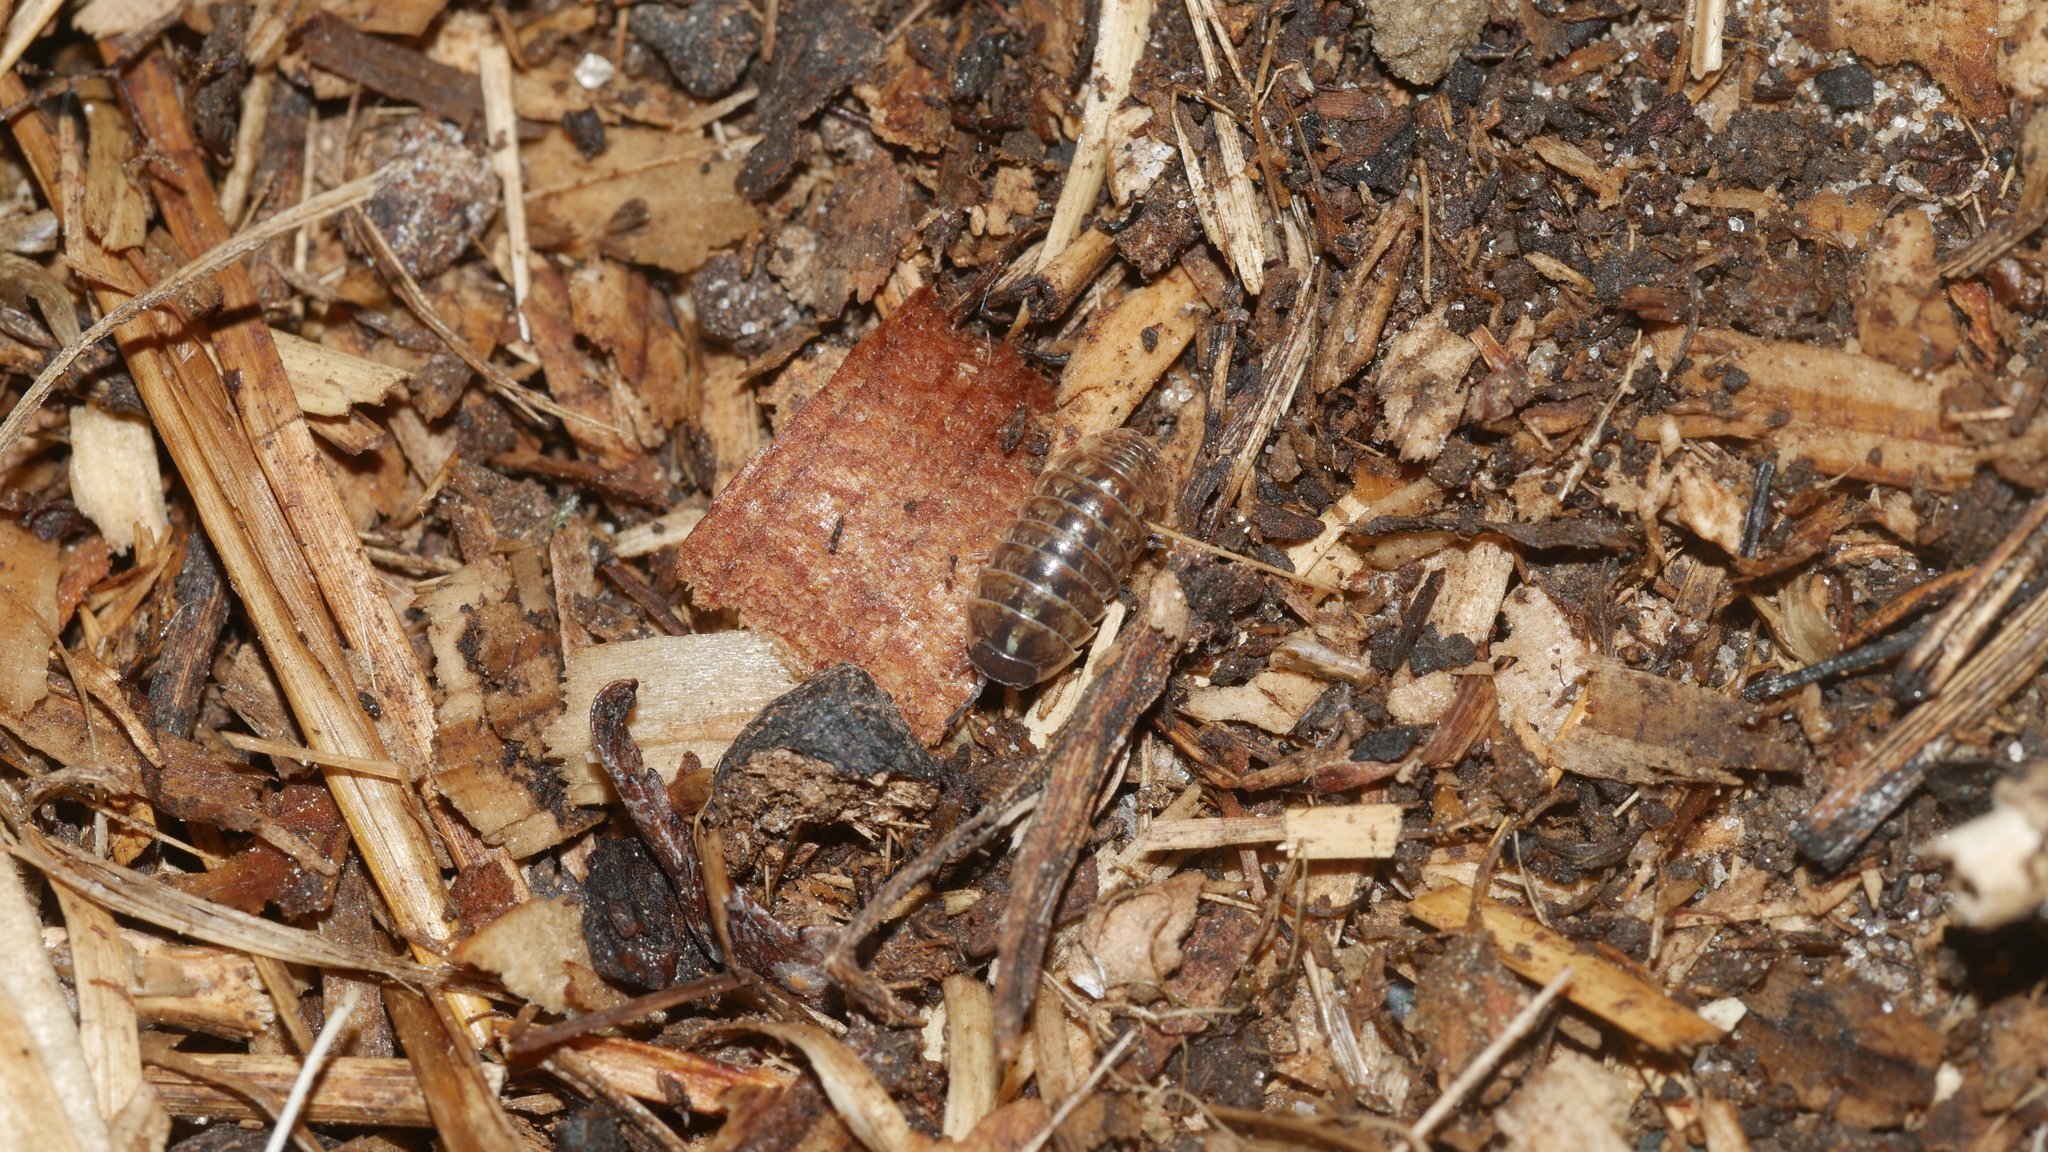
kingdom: Animalia
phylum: Arthropoda
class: Malacostraca
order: Isopoda
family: Armadillidiidae
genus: Armadillidium
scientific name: Armadillidium vulgare
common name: Common pill woodlouse
